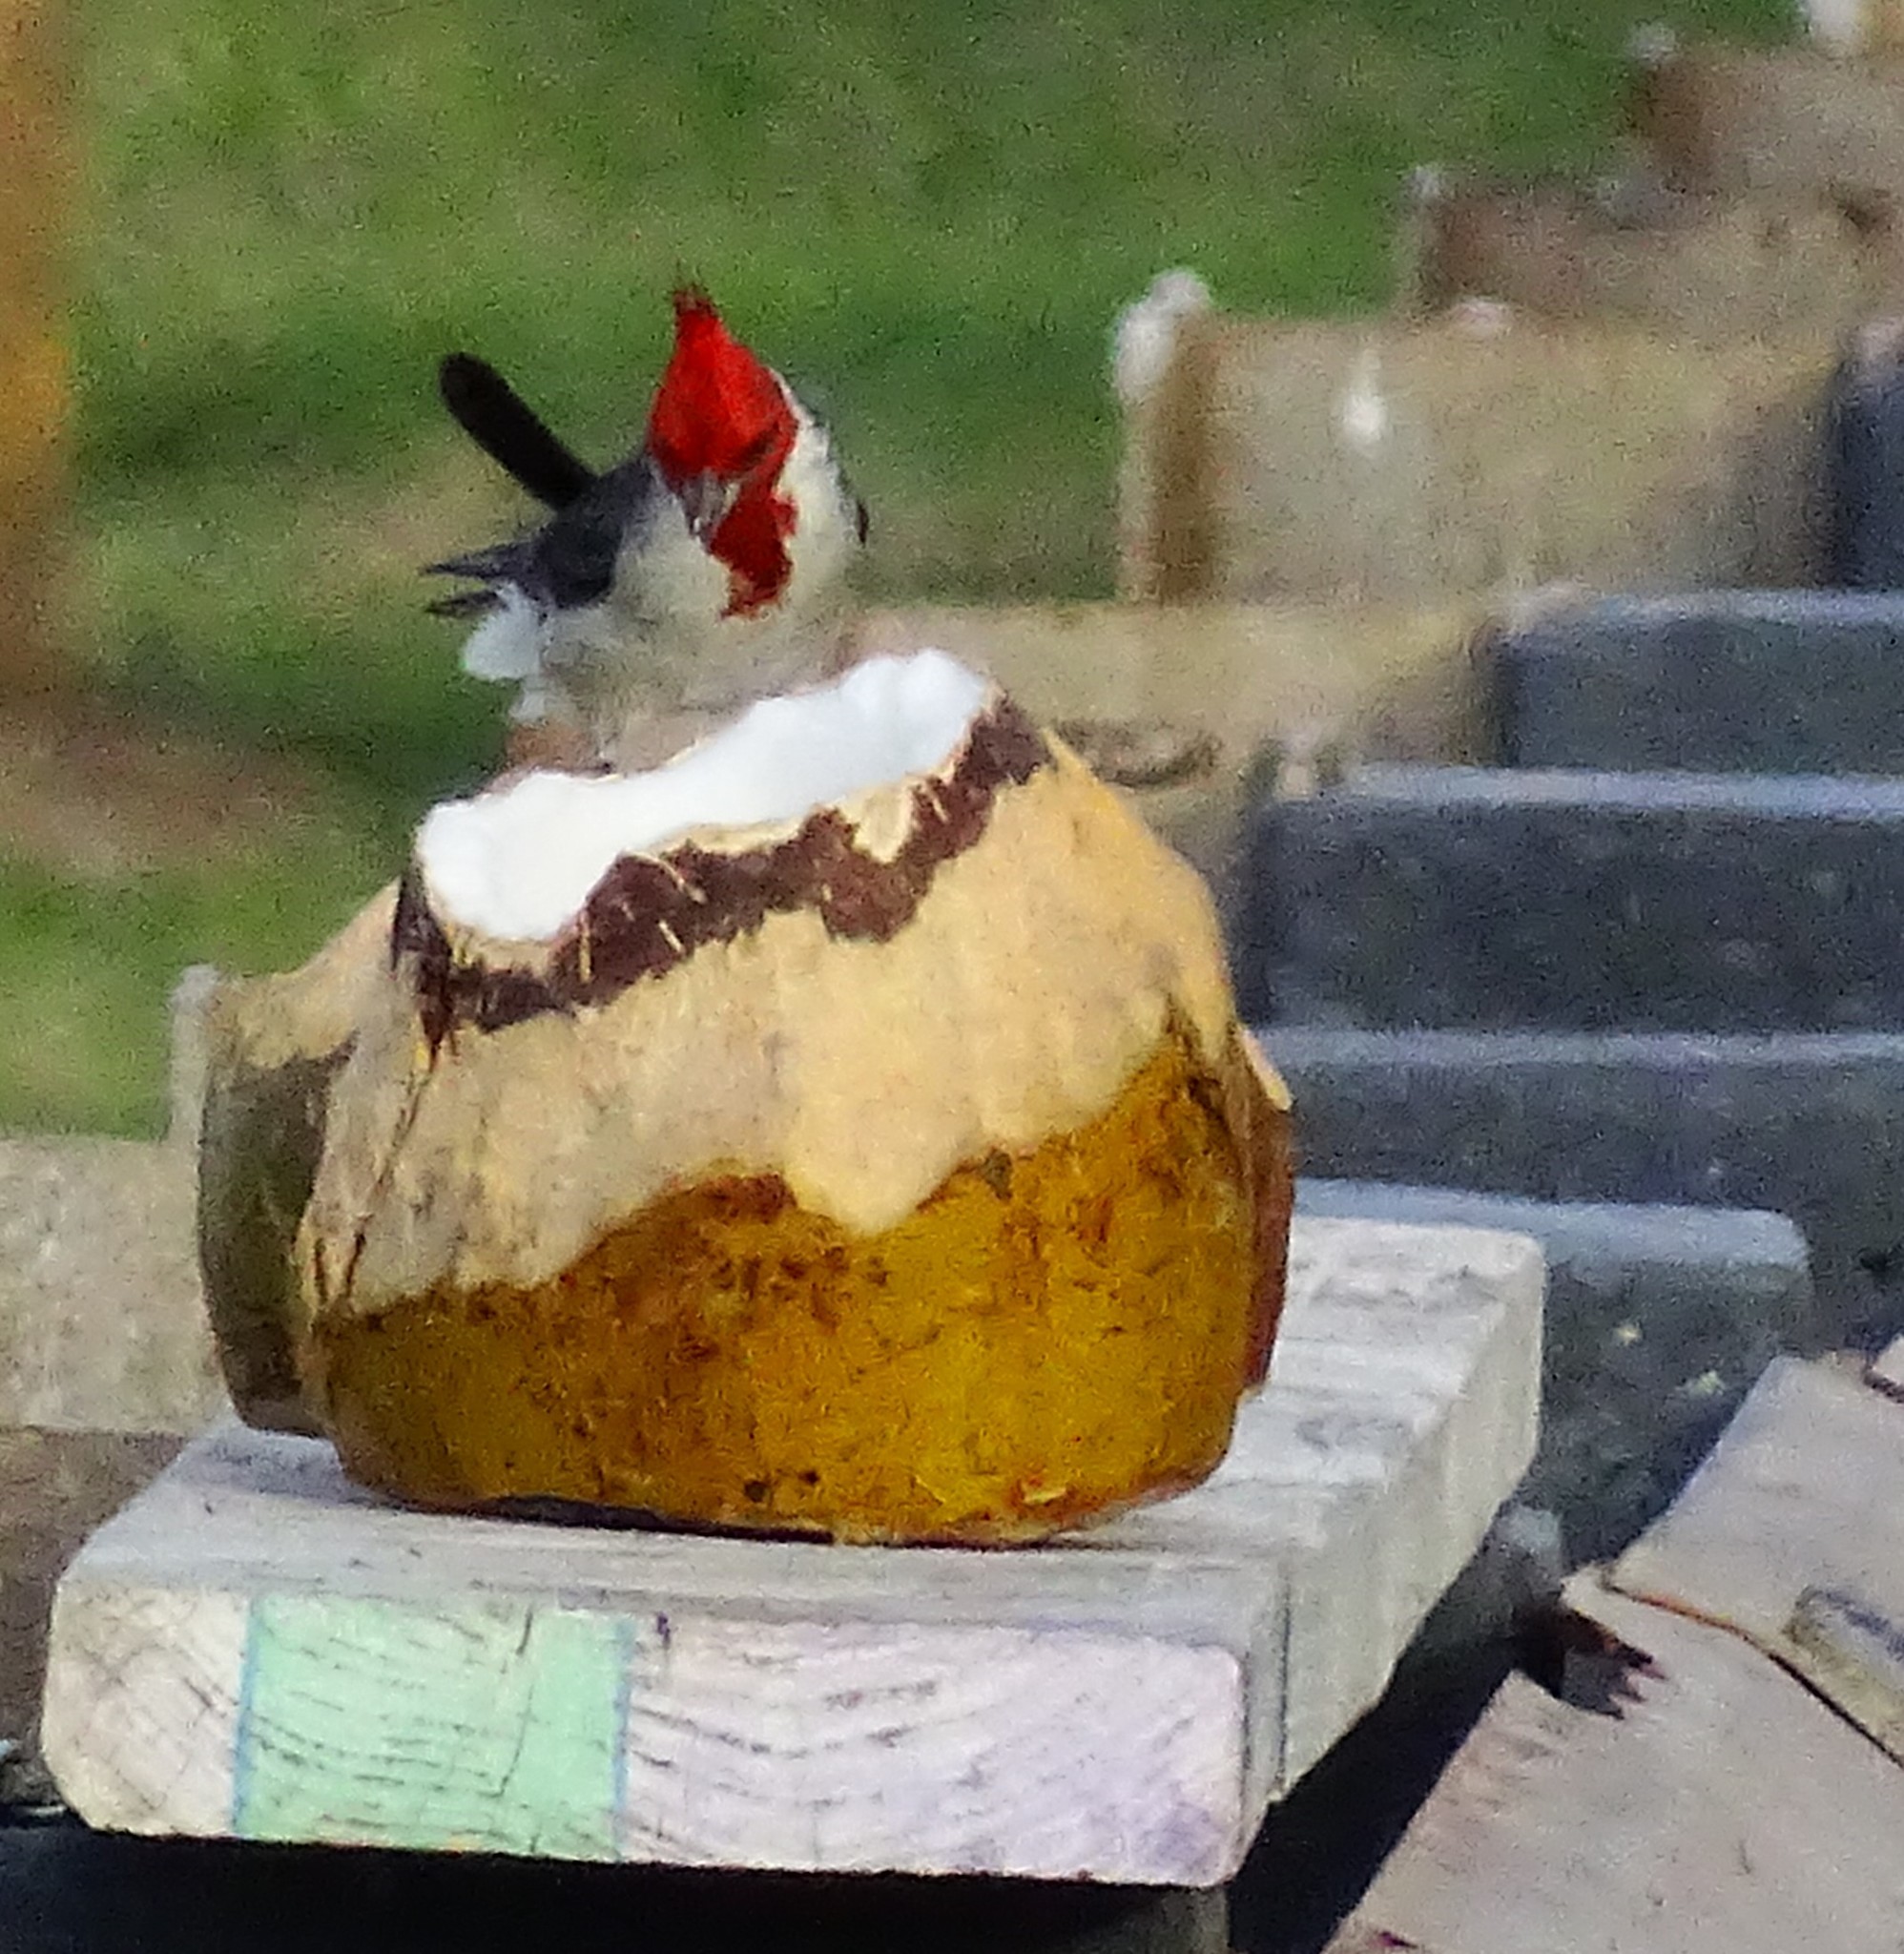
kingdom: Animalia
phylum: Chordata
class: Aves
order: Passeriformes
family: Thraupidae
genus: Paroaria
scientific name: Paroaria coronata
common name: Red-crested cardinal
